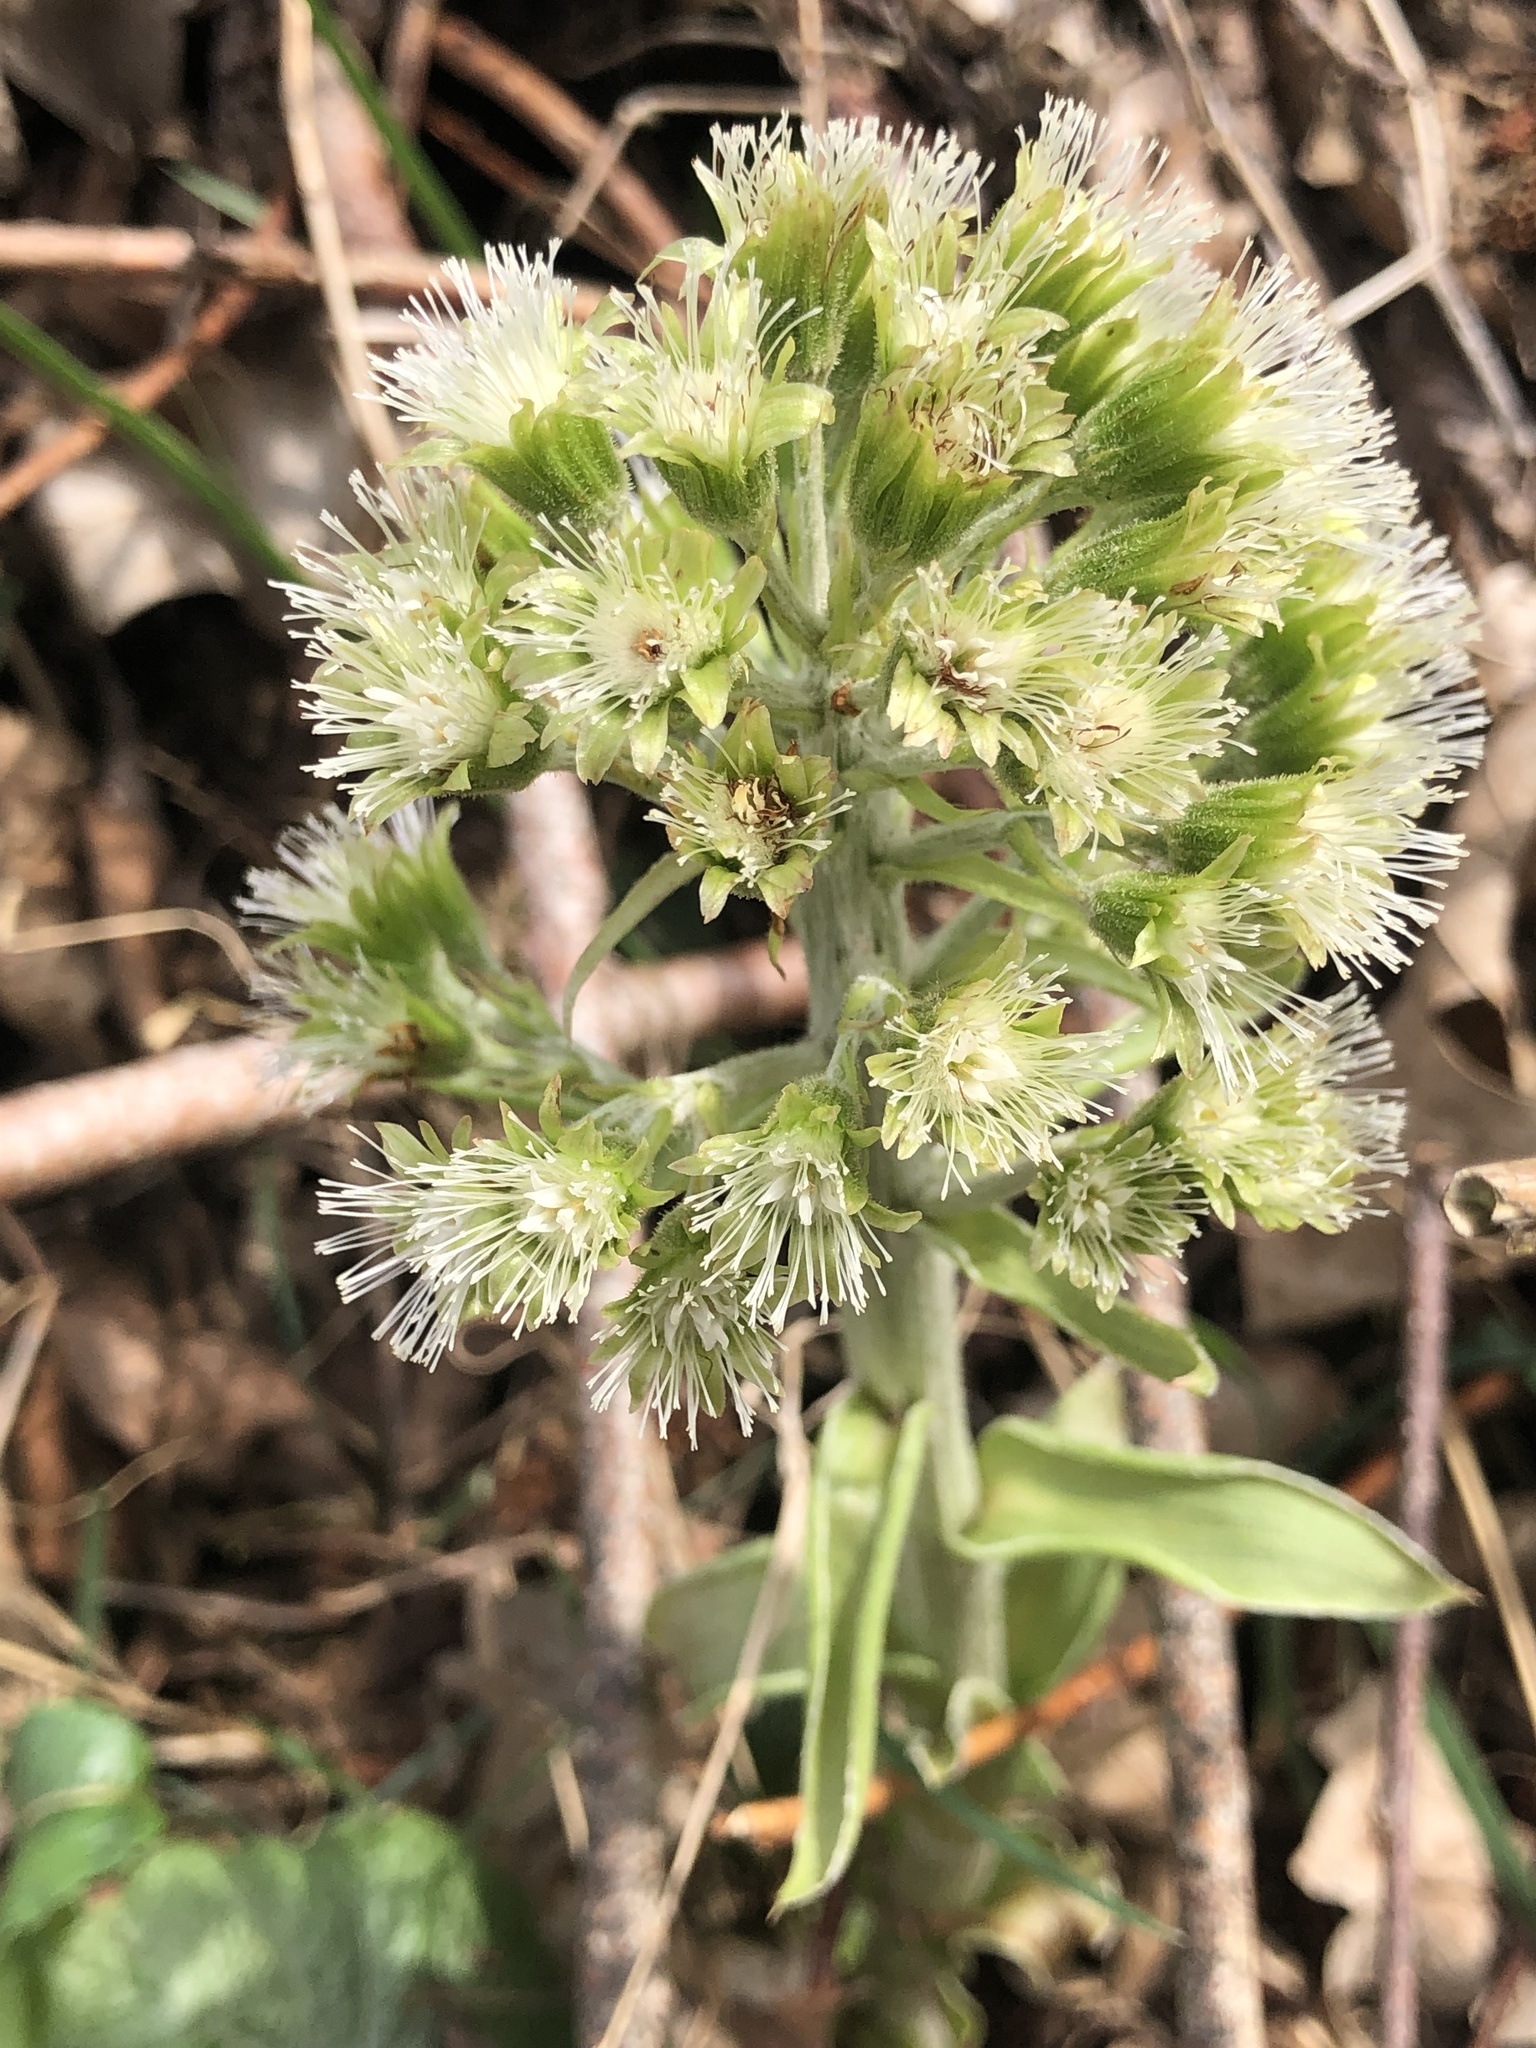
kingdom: Plantae
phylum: Tracheophyta
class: Magnoliopsida
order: Asterales
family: Asteraceae
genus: Petasites
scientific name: Petasites albus
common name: White butterbur
